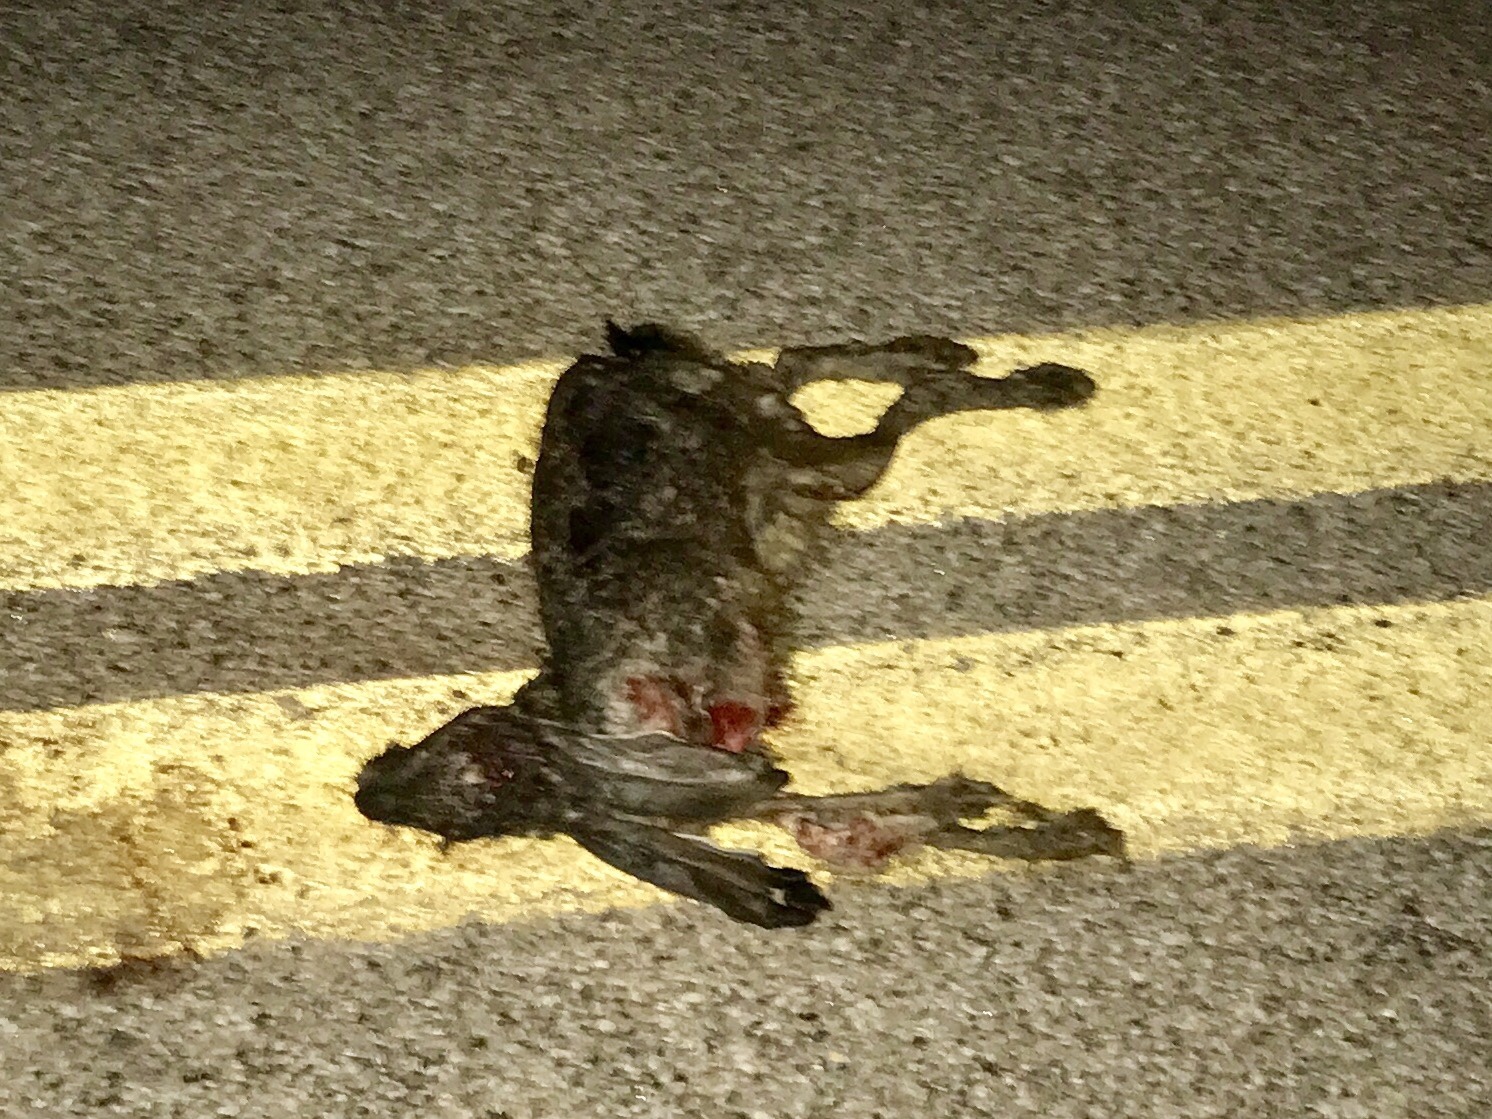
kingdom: Animalia
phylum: Chordata
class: Mammalia
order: Lagomorpha
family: Leporidae
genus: Lepus
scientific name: Lepus californicus
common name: Black-tailed jackrabbit
